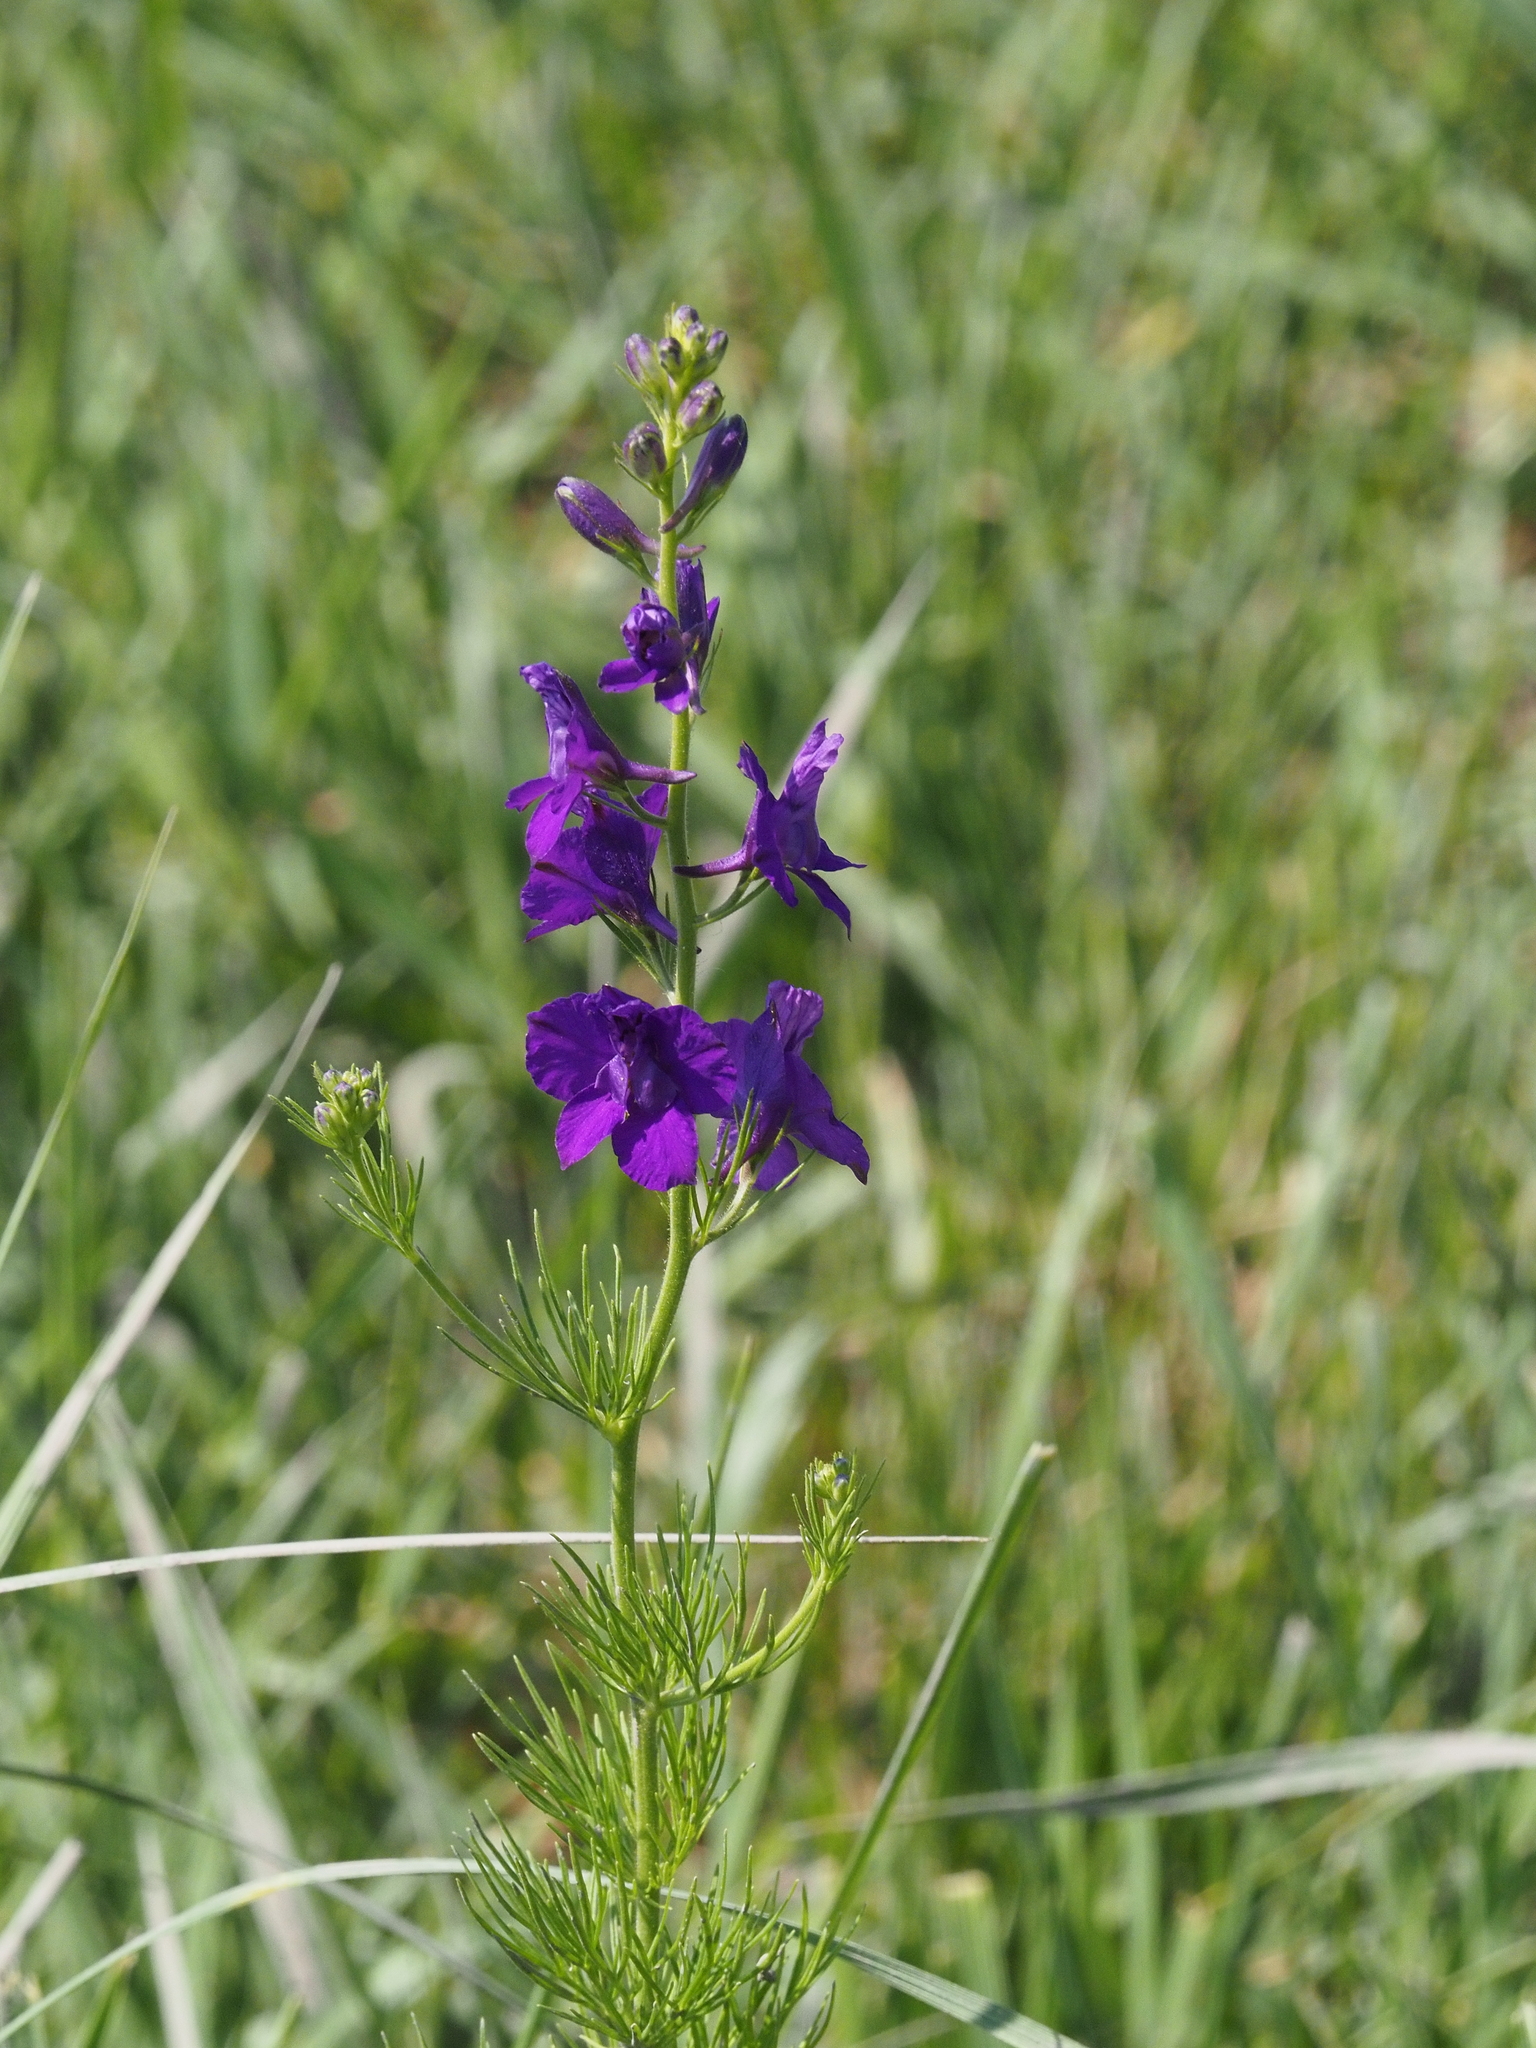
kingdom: Plantae
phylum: Tracheophyta
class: Magnoliopsida
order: Ranunculales
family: Ranunculaceae
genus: Delphinium
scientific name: Delphinium ajacis
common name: Doubtful knight's-spur
